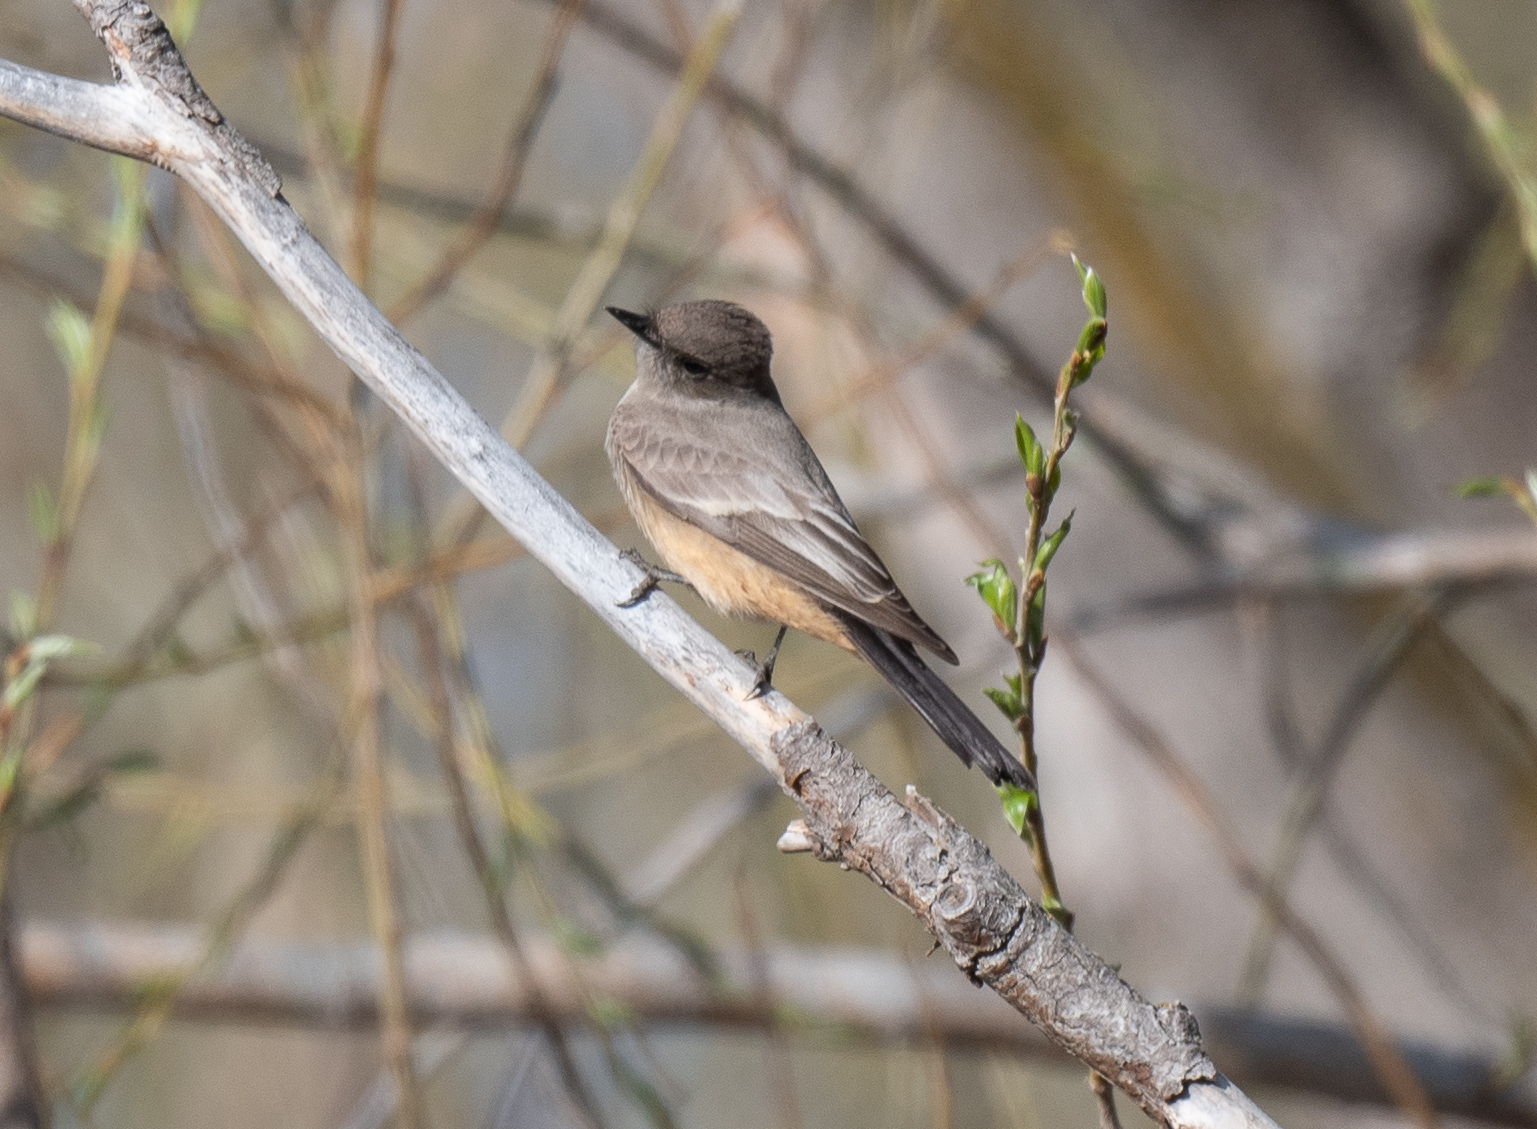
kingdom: Animalia
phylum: Chordata
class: Aves
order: Passeriformes
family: Tyrannidae
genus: Sayornis
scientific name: Sayornis saya
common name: Say's phoebe
